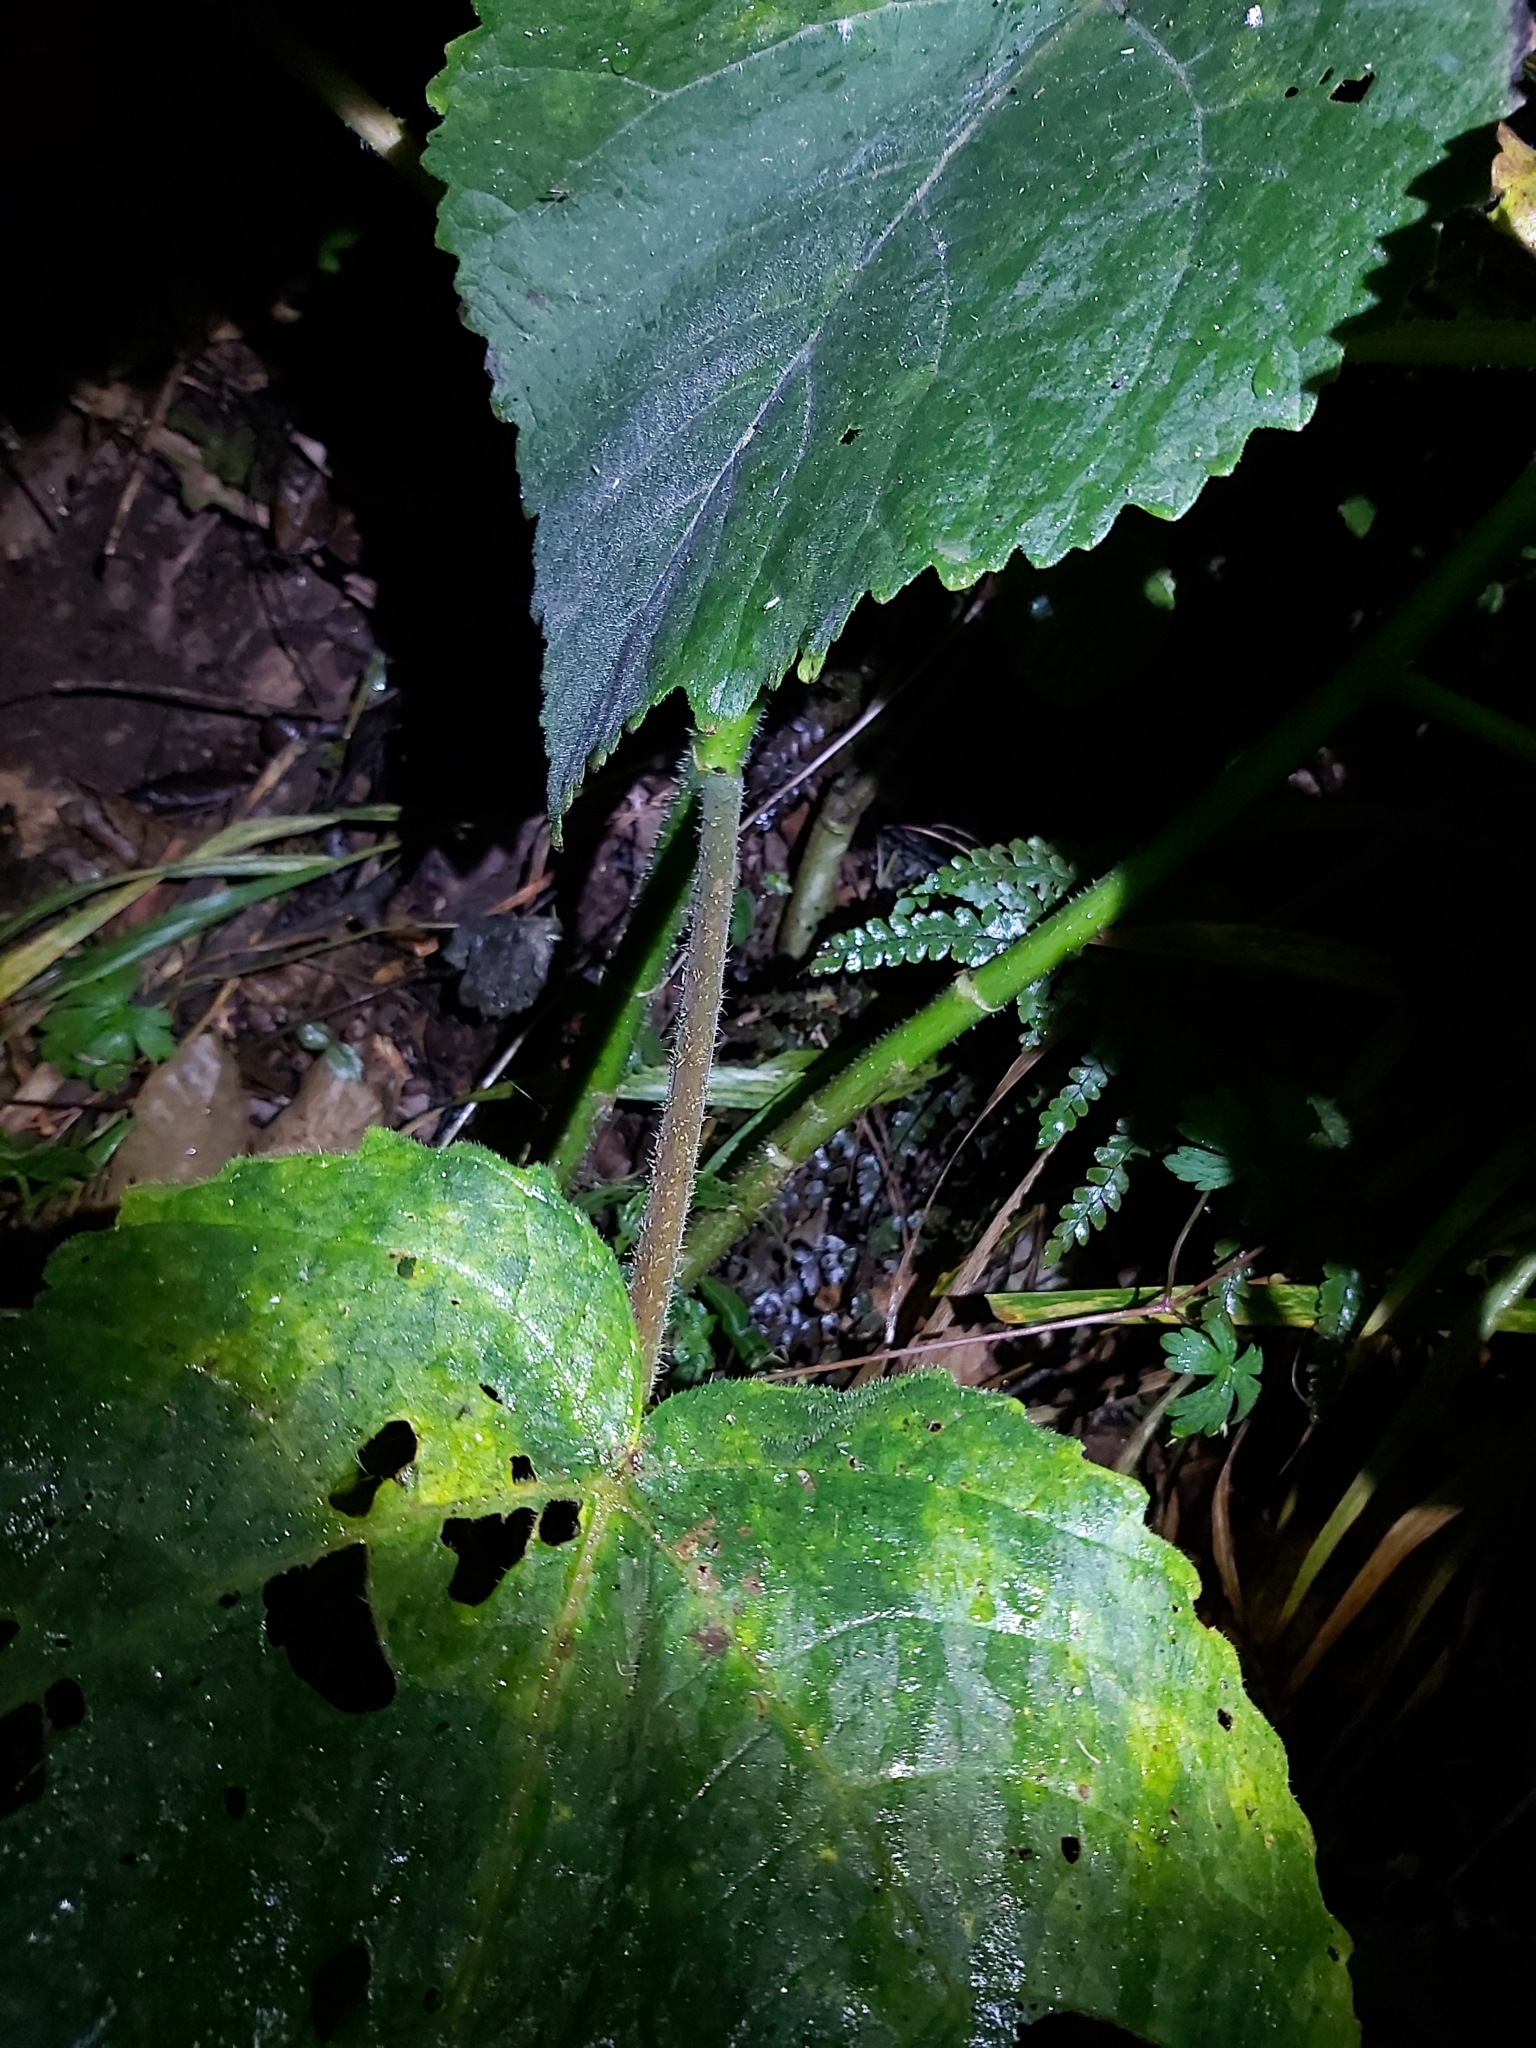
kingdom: Plantae
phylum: Tracheophyta
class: Magnoliopsida
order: Rosales
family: Urticaceae
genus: Dendrocnide
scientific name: Dendrocnide excelsa
